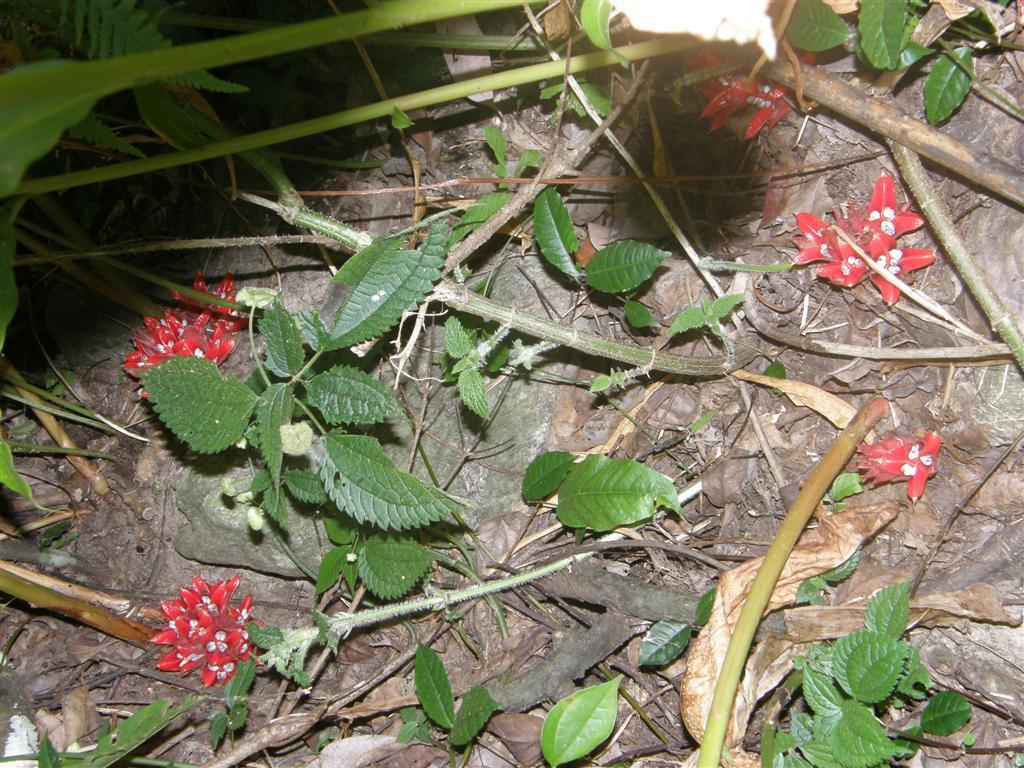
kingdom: Plantae
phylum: Tracheophyta
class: Liliopsida
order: Zingiberales
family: Zingiberaceae
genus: Zingiber
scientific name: Zingiber chrysanthum
